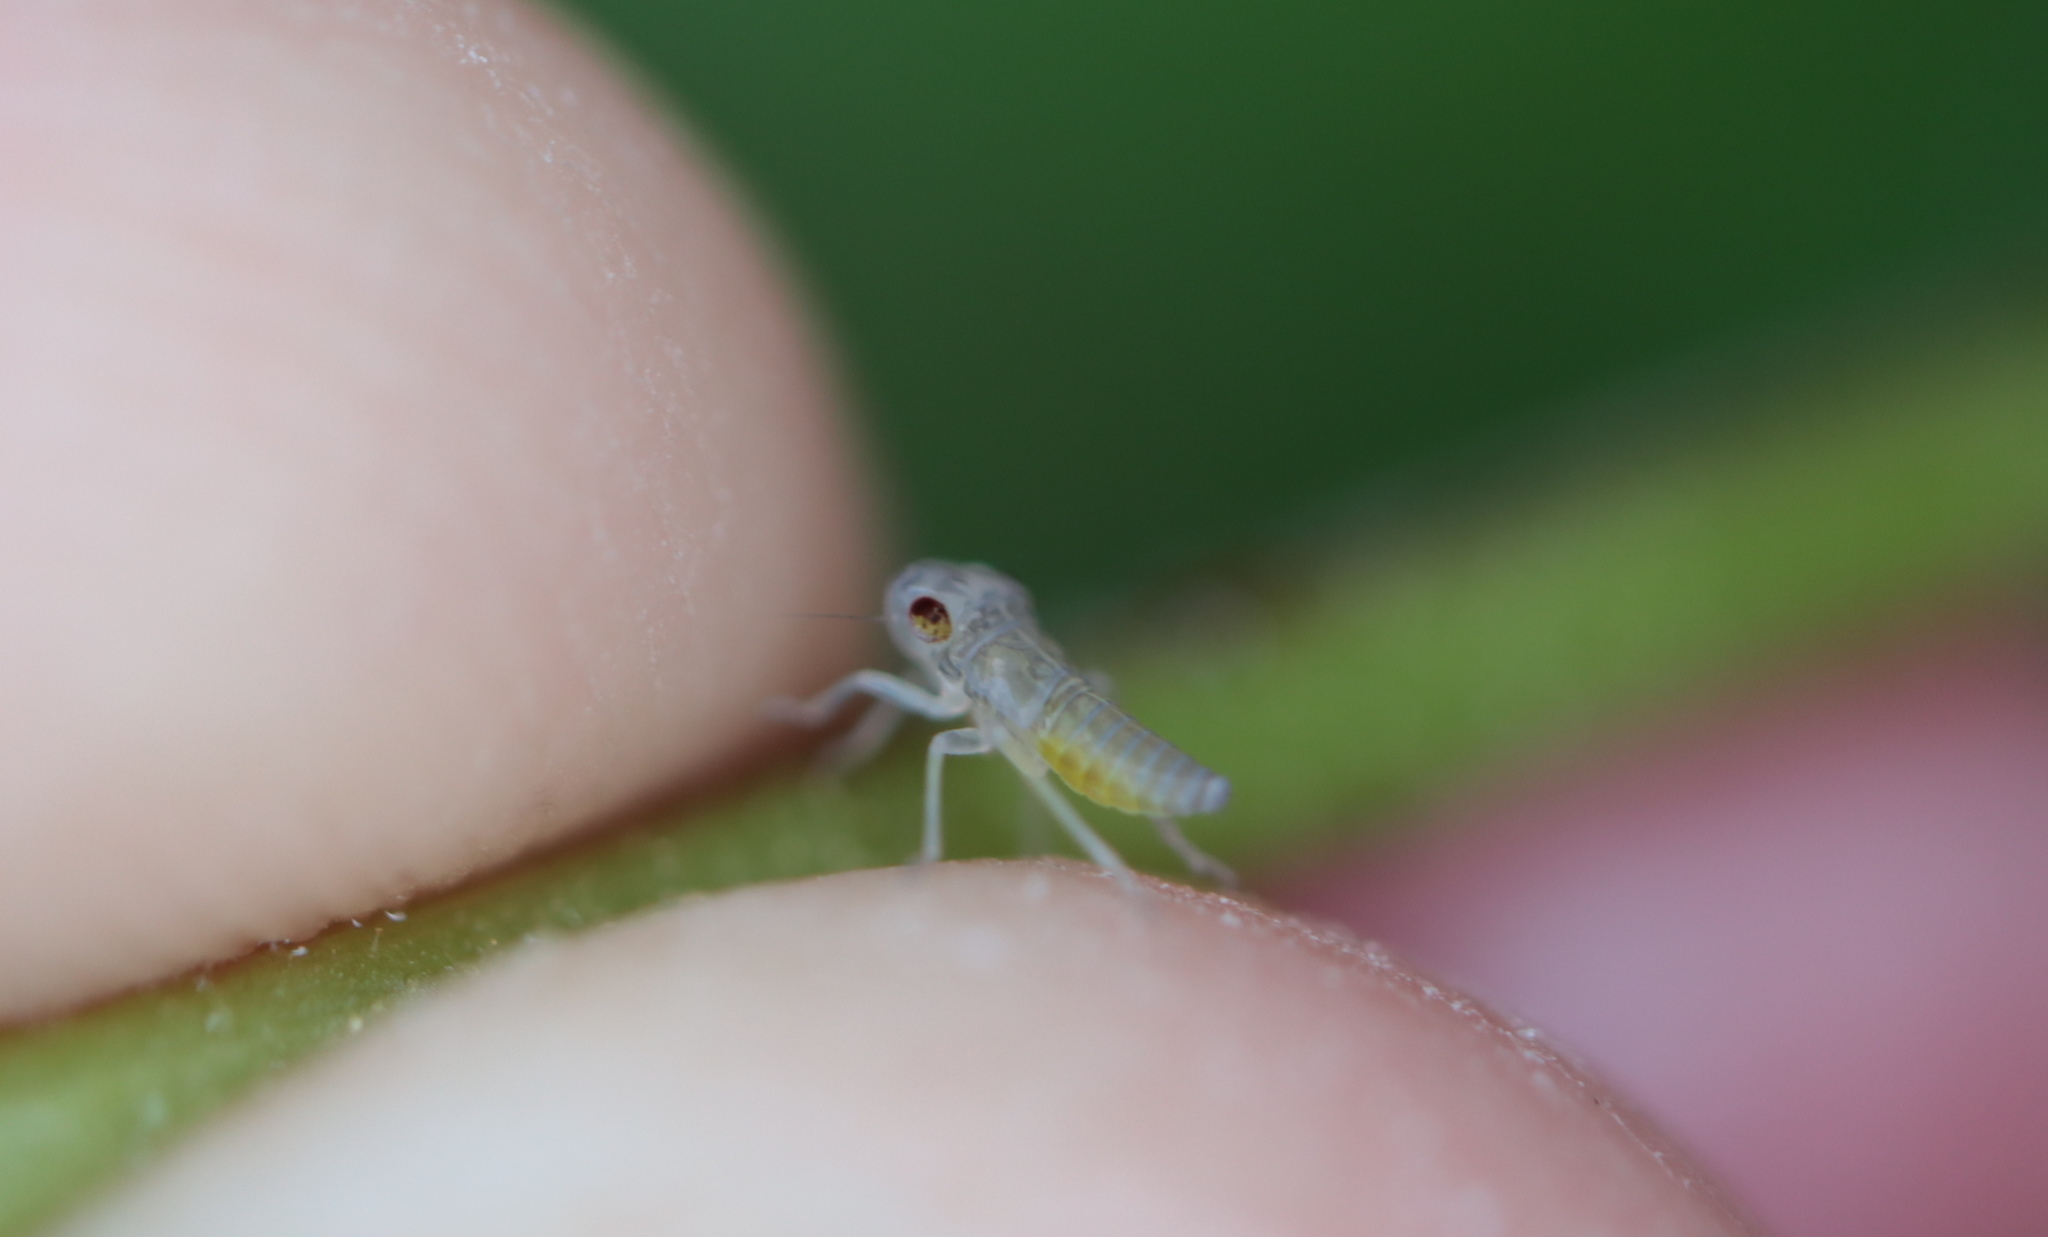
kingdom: Animalia
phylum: Arthropoda
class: Insecta
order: Hemiptera
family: Cicadellidae
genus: Oncometopia
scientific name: Oncometopia orbona
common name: Broad-headed sharpshooter
